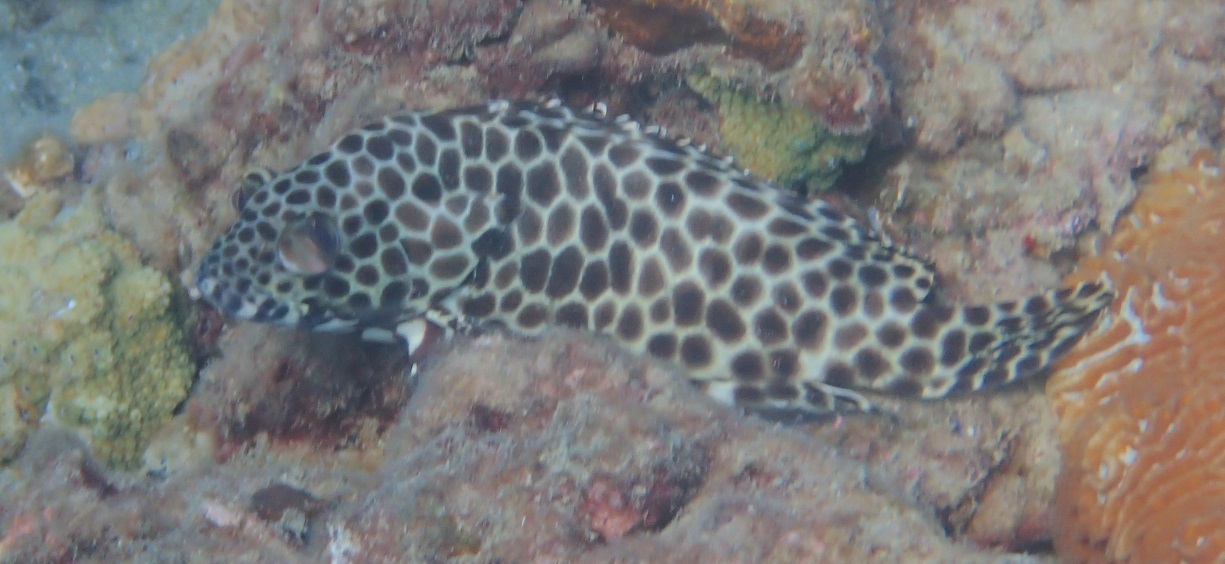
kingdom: Animalia
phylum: Chordata
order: Perciformes
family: Serranidae
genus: Epinephelus
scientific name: Epinephelus quoyanus
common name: Longfin grouper
